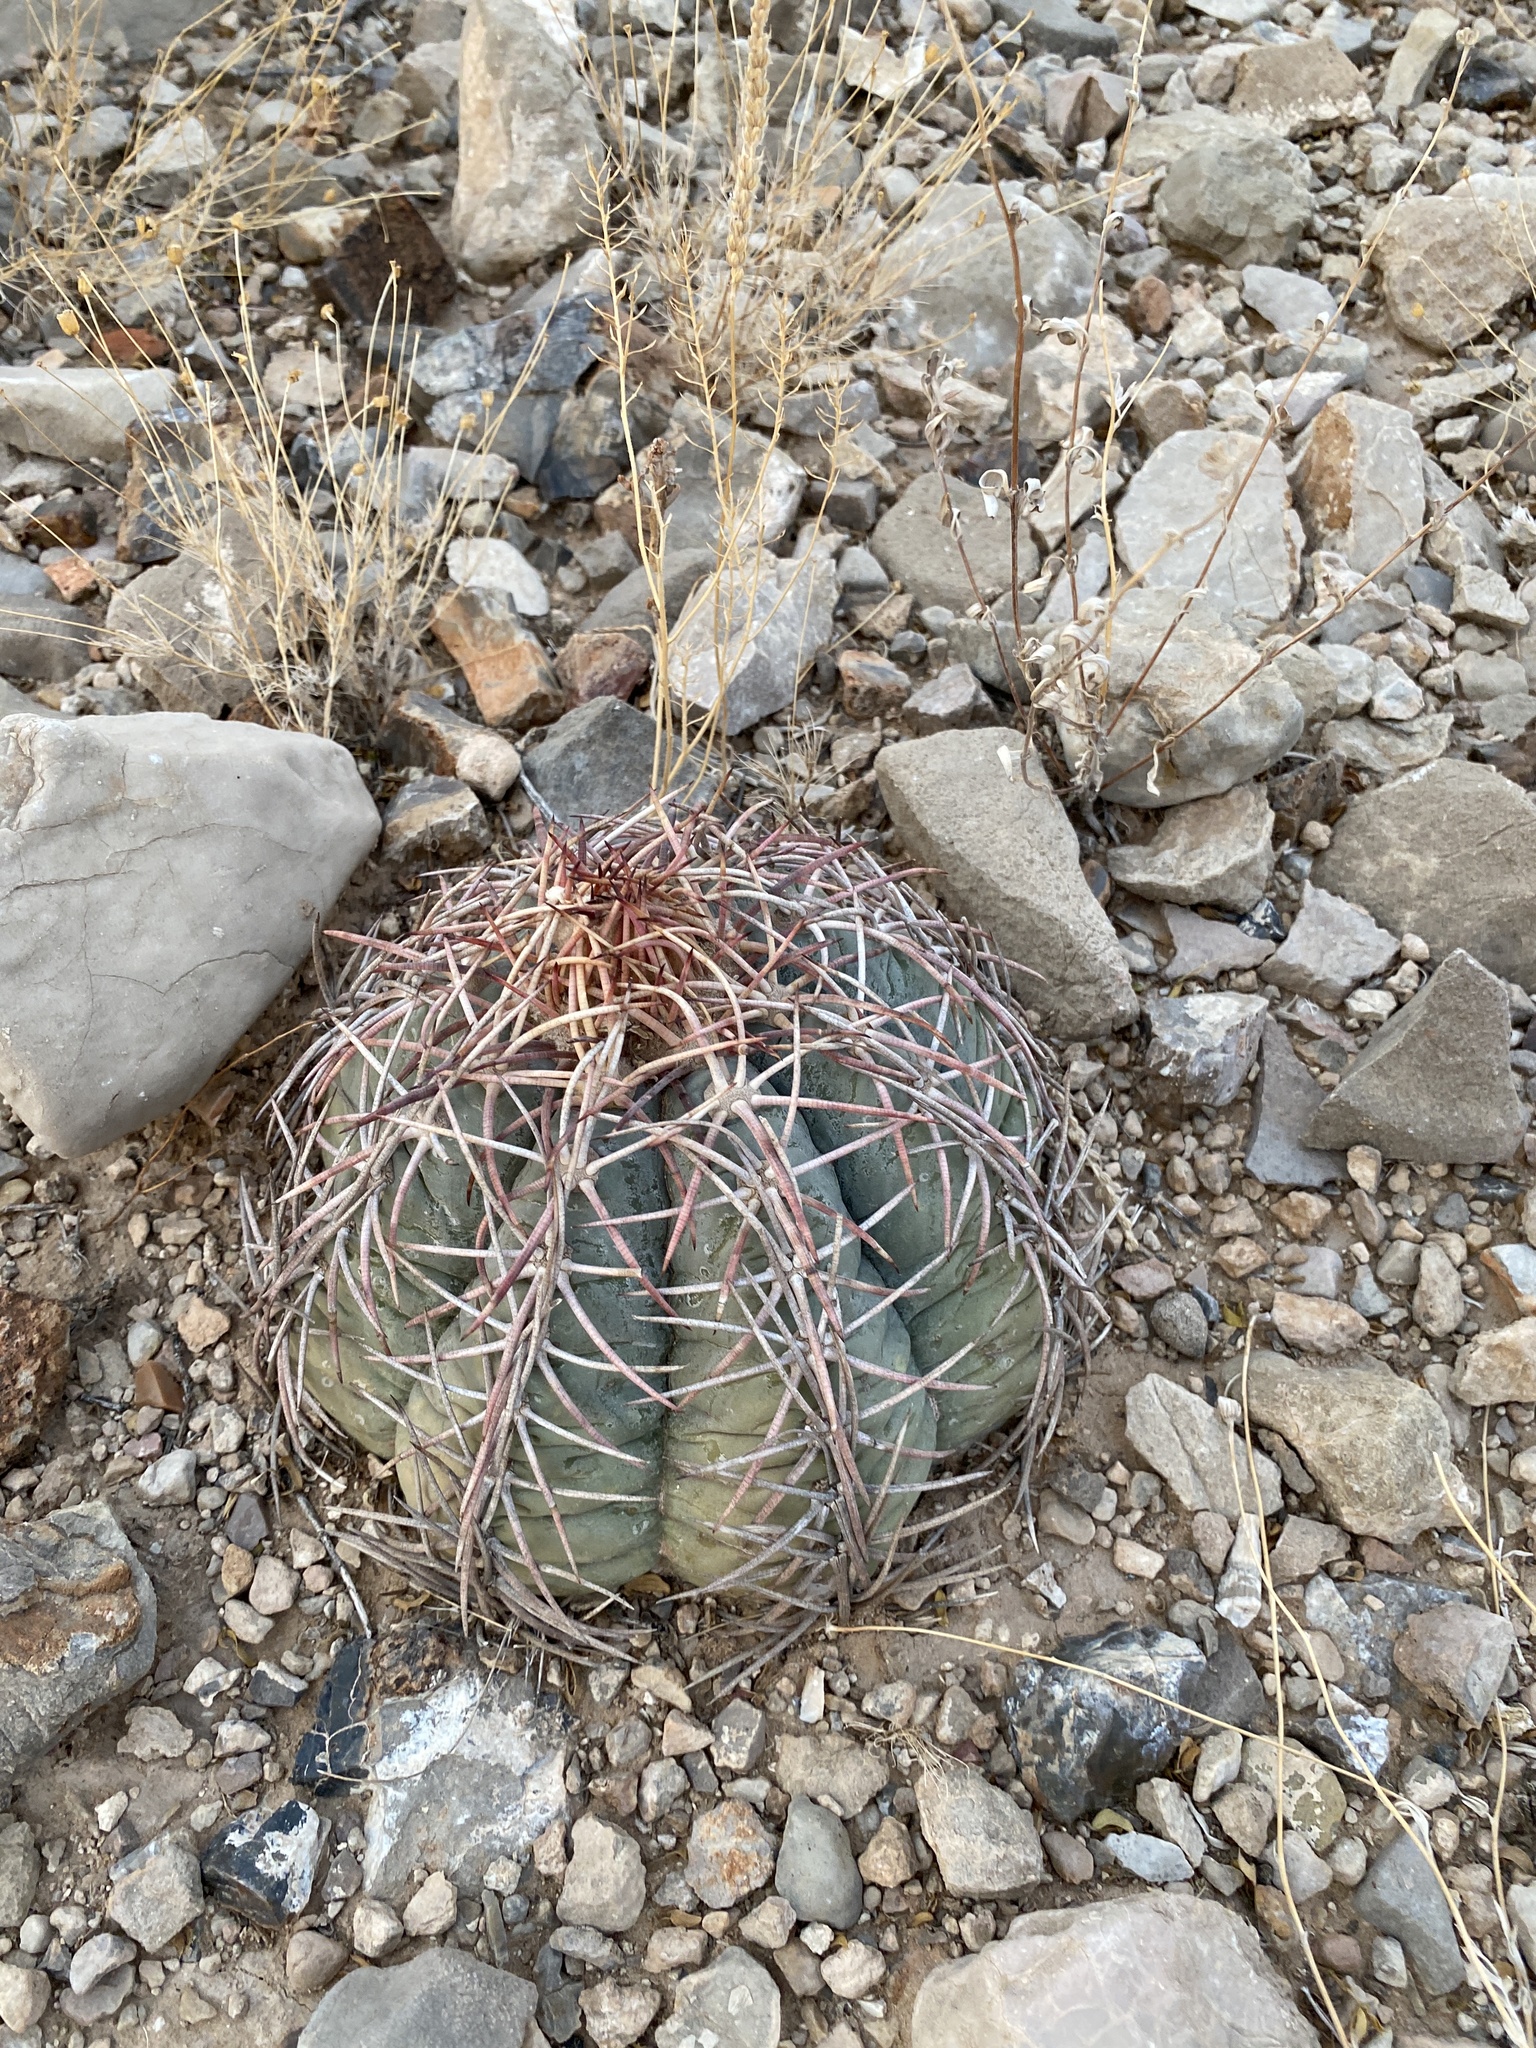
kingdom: Plantae
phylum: Tracheophyta
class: Magnoliopsida
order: Caryophyllales
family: Cactaceae
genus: Echinocactus
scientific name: Echinocactus horizonthalonius
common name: Devilshead
